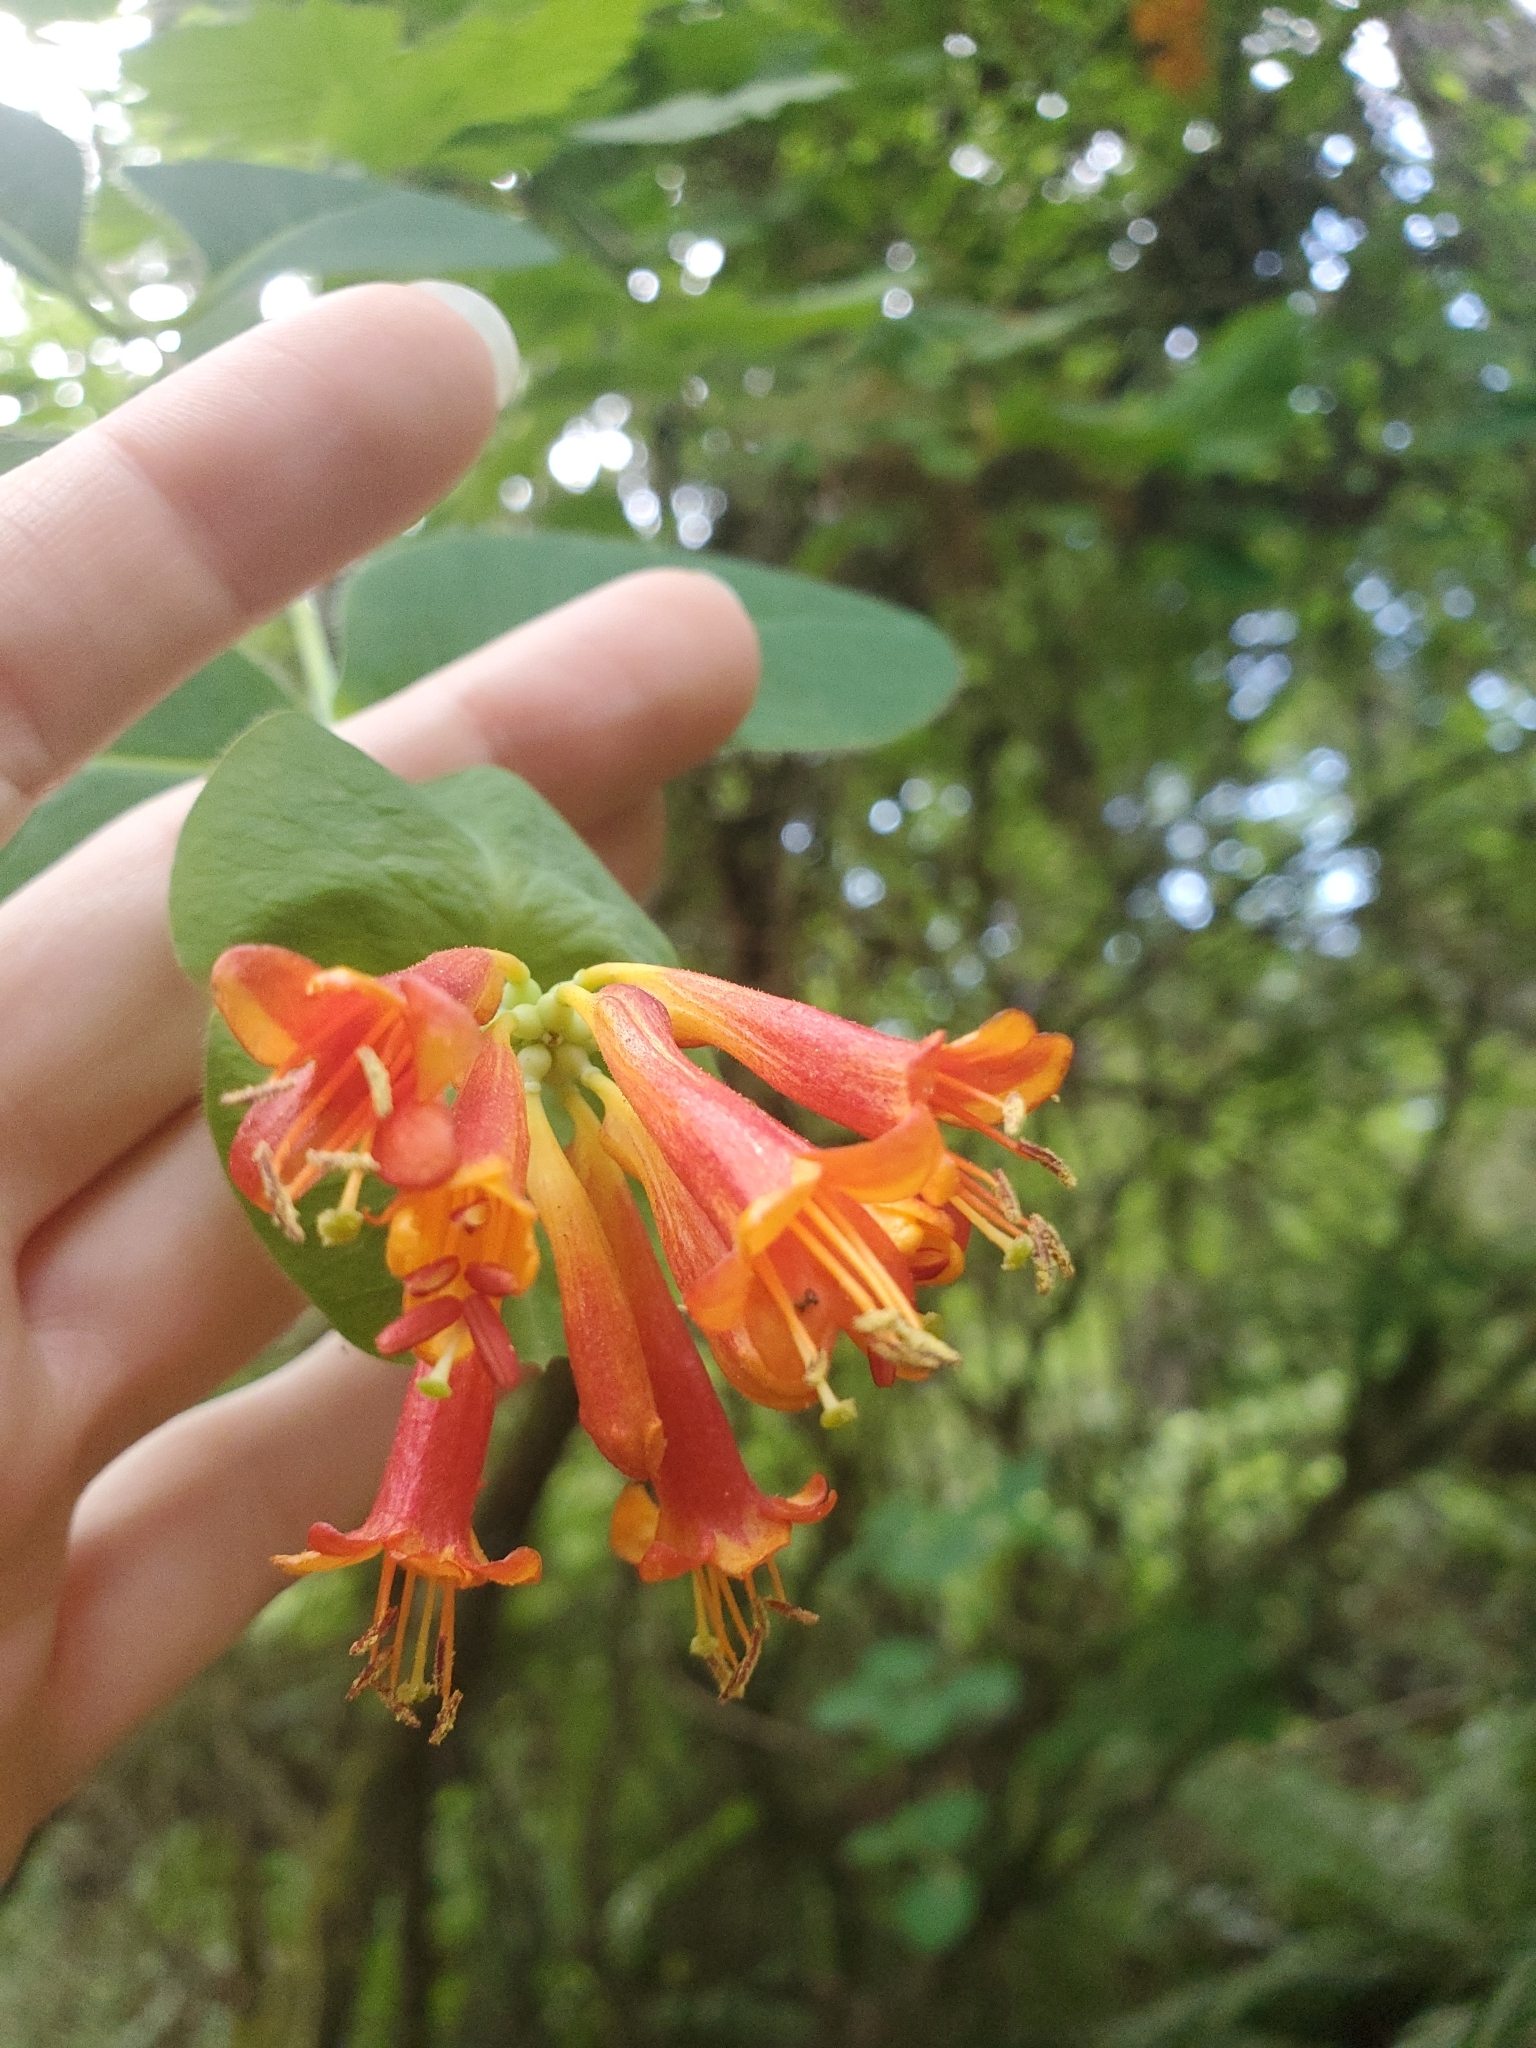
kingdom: Plantae
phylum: Tracheophyta
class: Magnoliopsida
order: Dipsacales
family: Caprifoliaceae
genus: Lonicera
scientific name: Lonicera ciliosa
